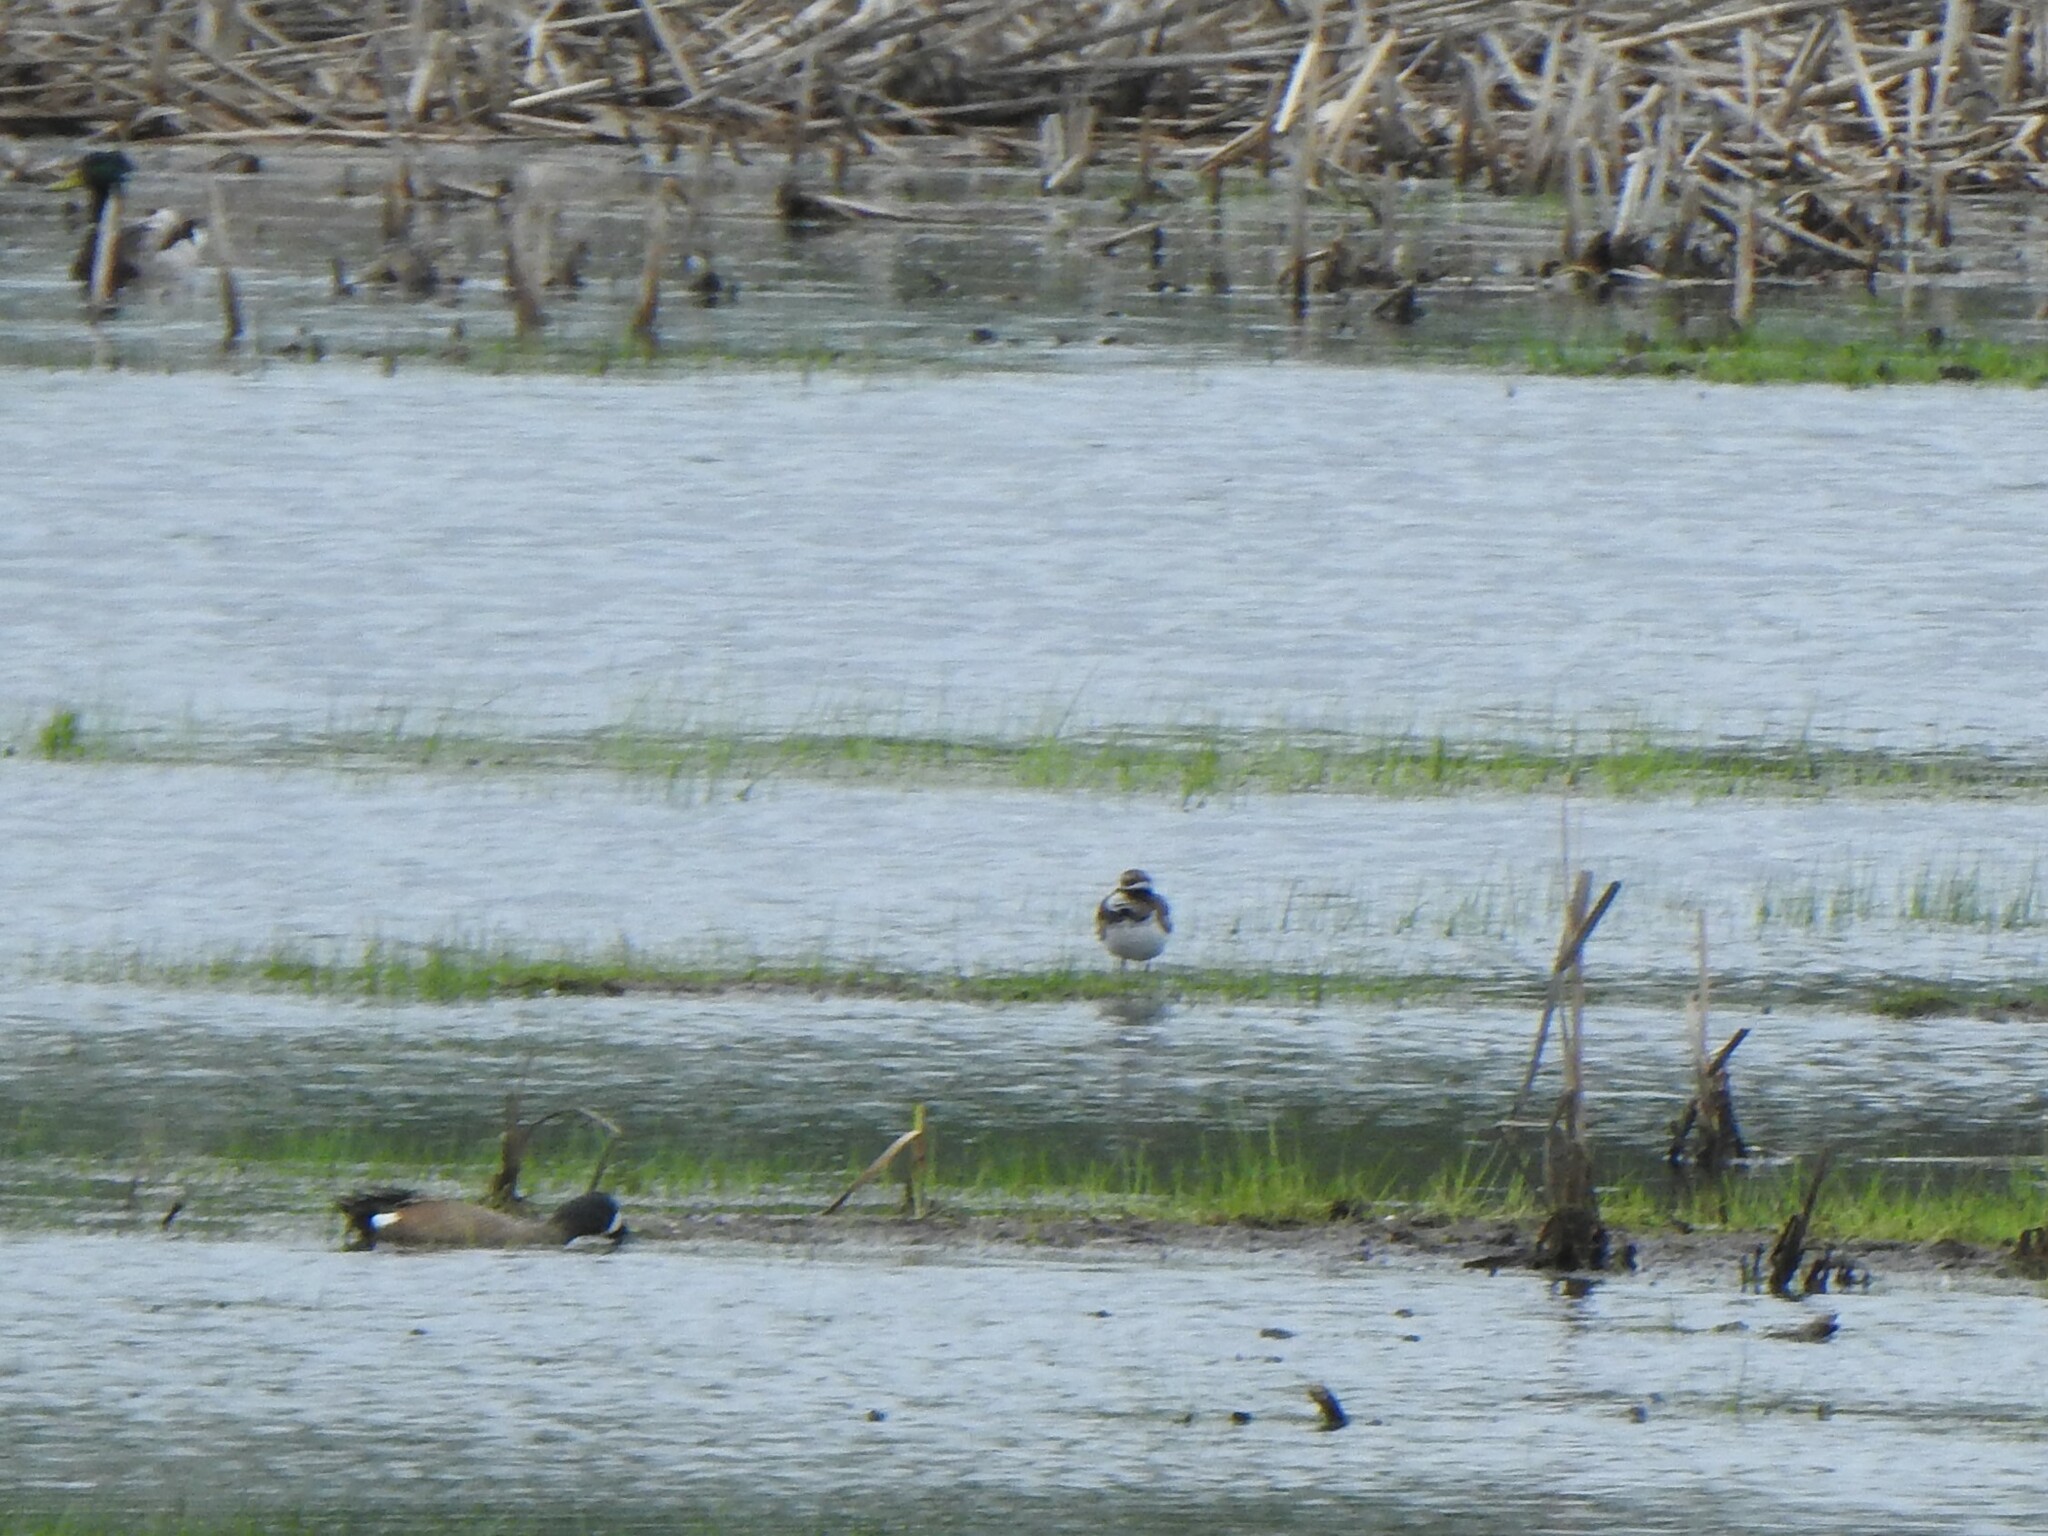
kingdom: Animalia
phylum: Chordata
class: Aves
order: Charadriiformes
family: Charadriidae
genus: Charadrius
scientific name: Charadrius vociferus
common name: Killdeer
